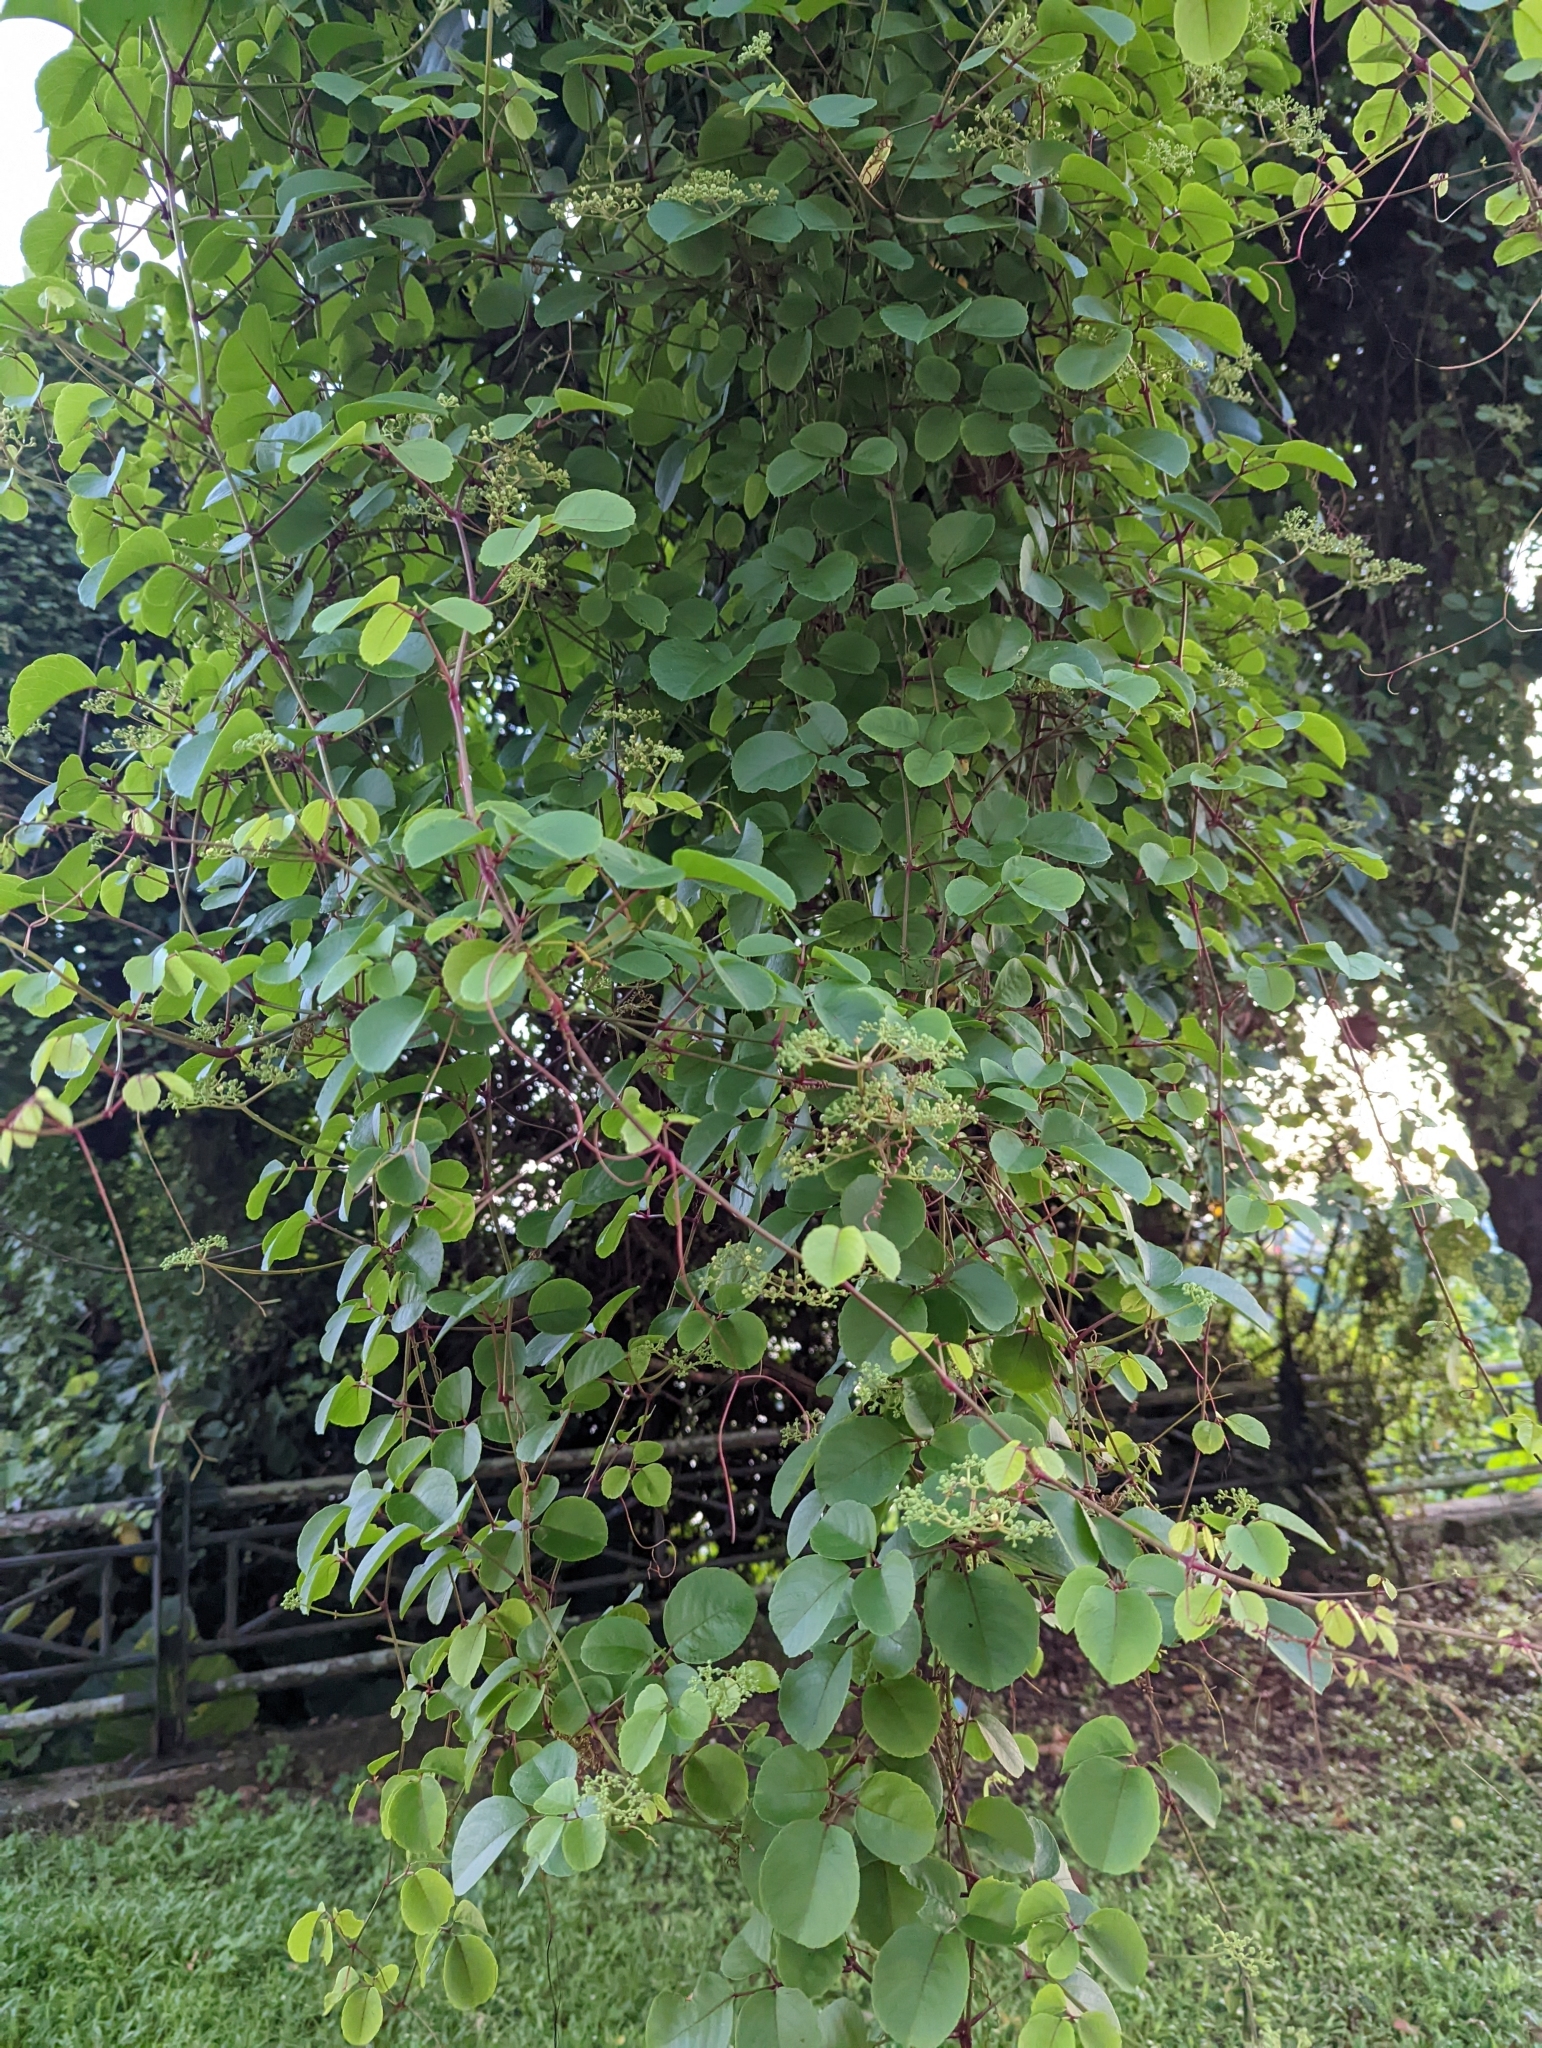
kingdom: Plantae
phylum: Tracheophyta
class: Magnoliopsida
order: Vitales
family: Vitaceae
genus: Causonis
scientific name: Causonis trifolia
